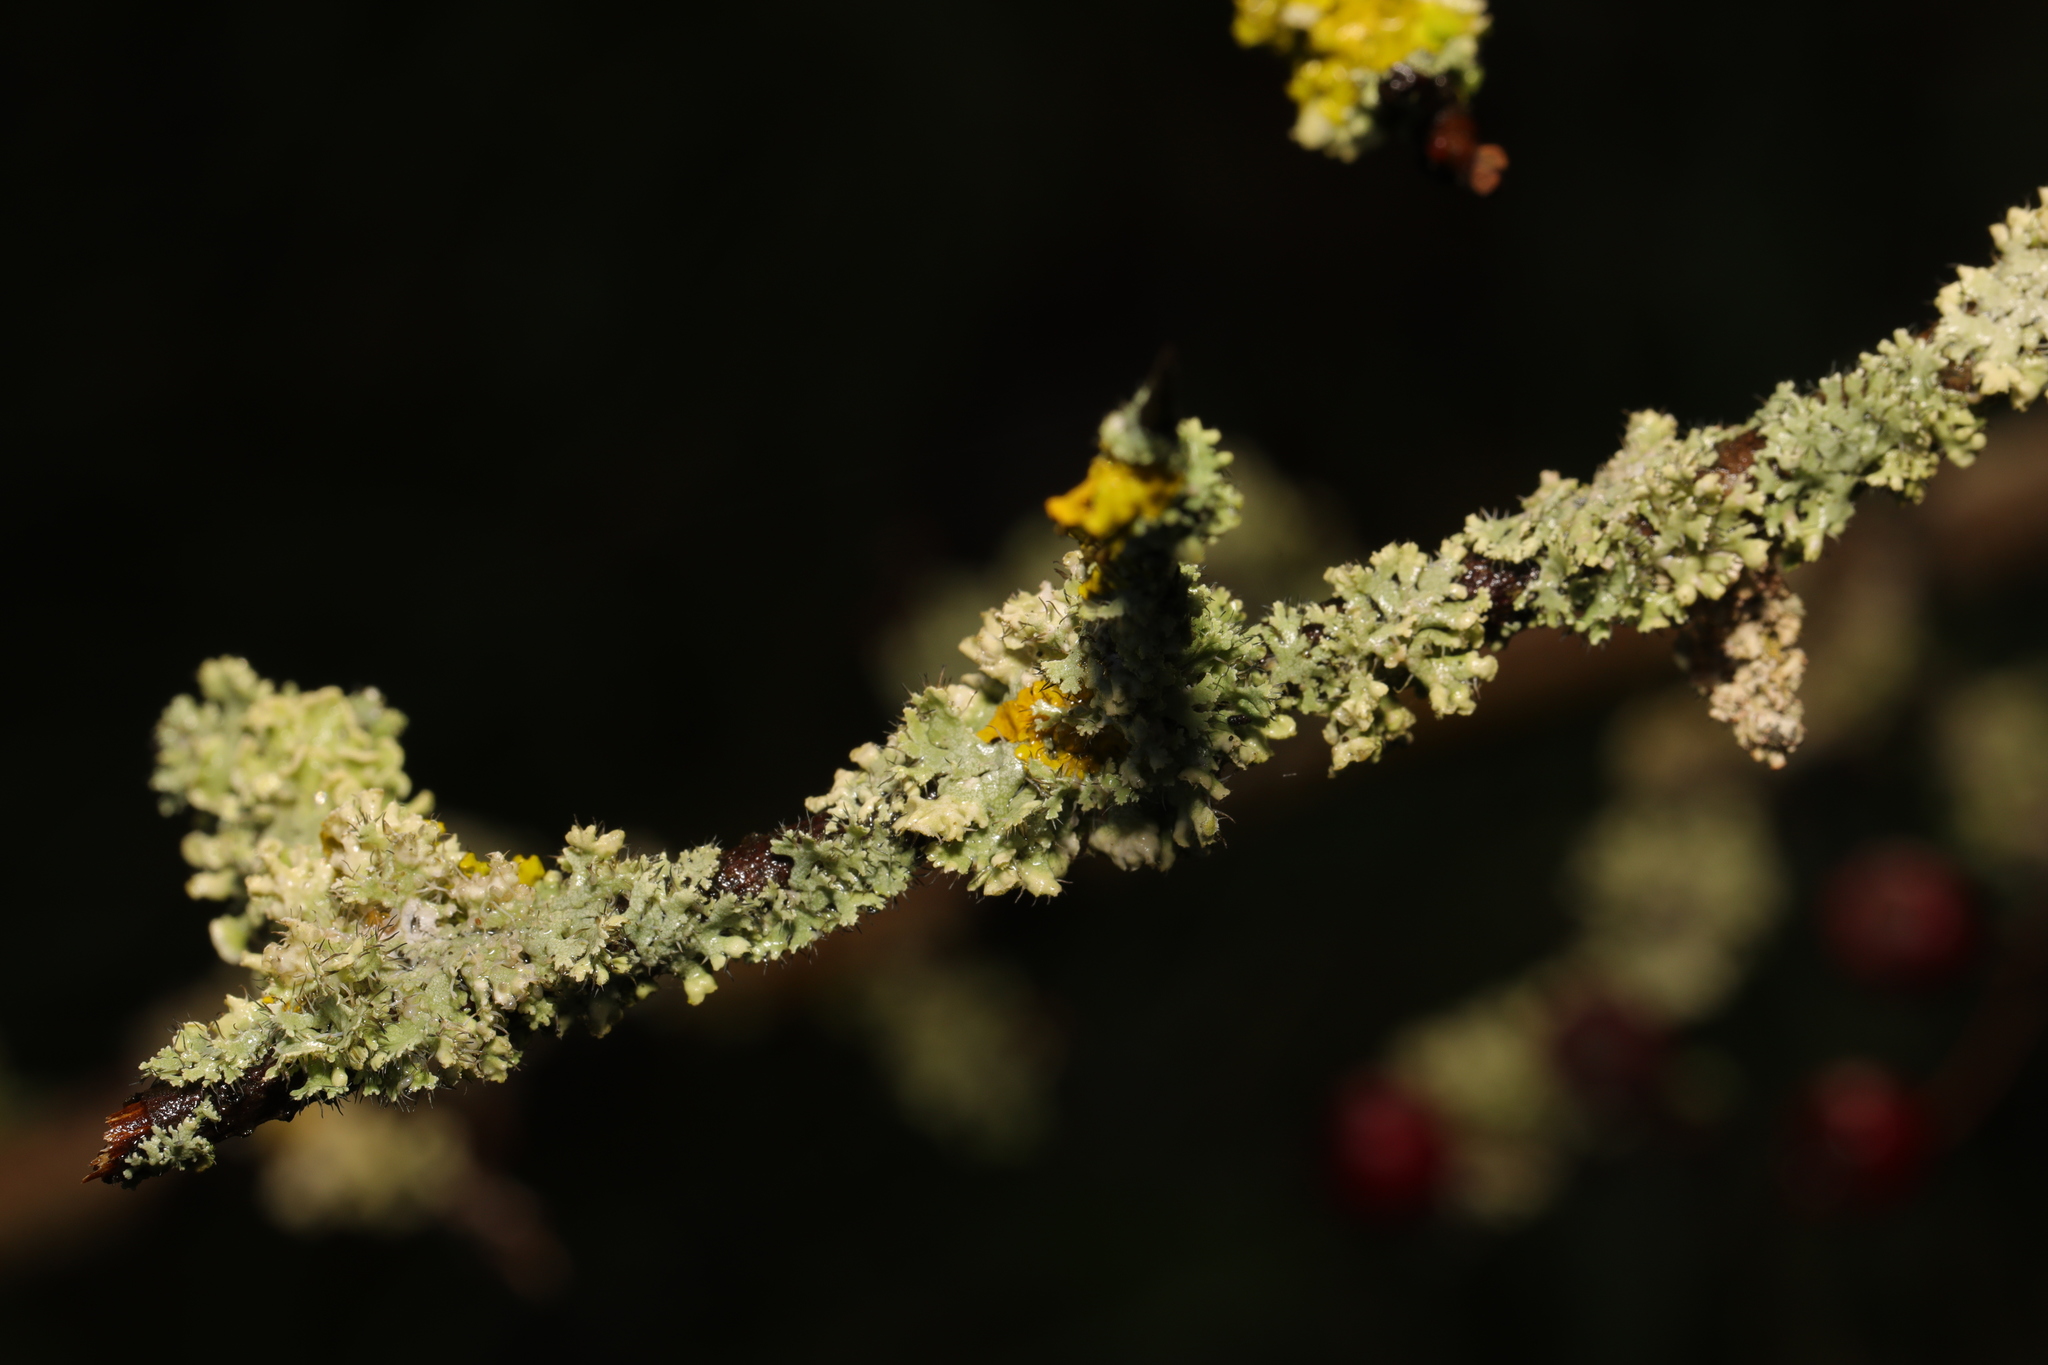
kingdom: Fungi
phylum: Ascomycota
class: Lecanoromycetes
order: Teloschistales
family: Teloschistaceae
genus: Xanthoria
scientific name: Xanthoria parietina
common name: Common orange lichen
